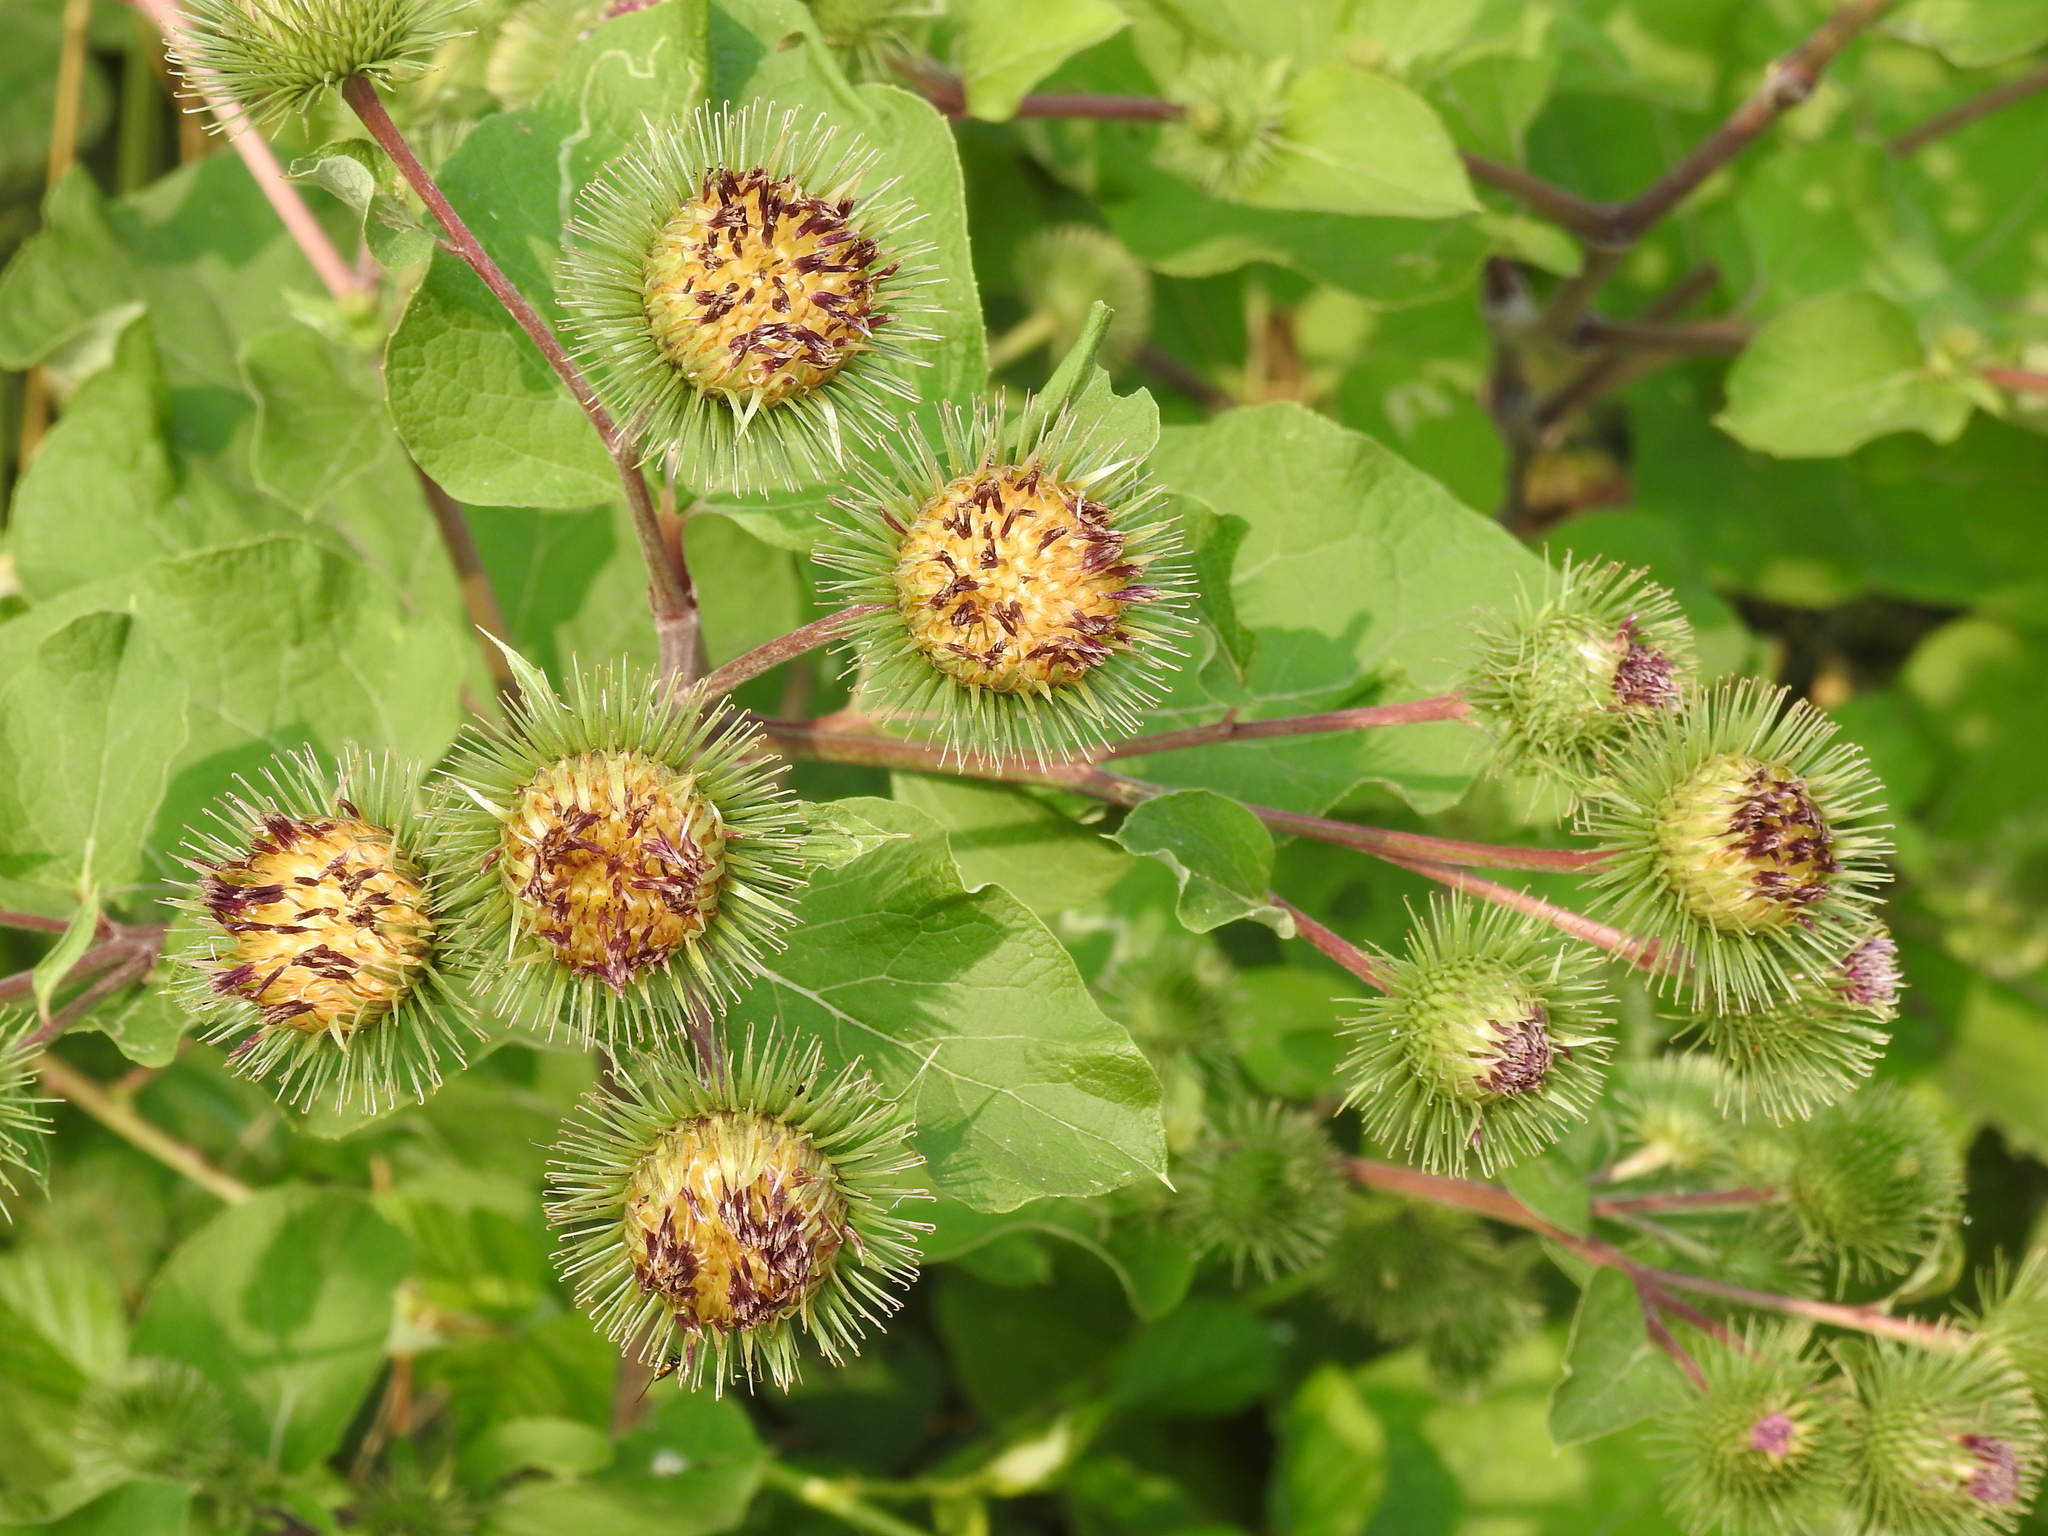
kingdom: Plantae
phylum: Tracheophyta
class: Magnoliopsida
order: Asterales
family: Asteraceae
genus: Arctium
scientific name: Arctium lappa
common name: Greater burdock
